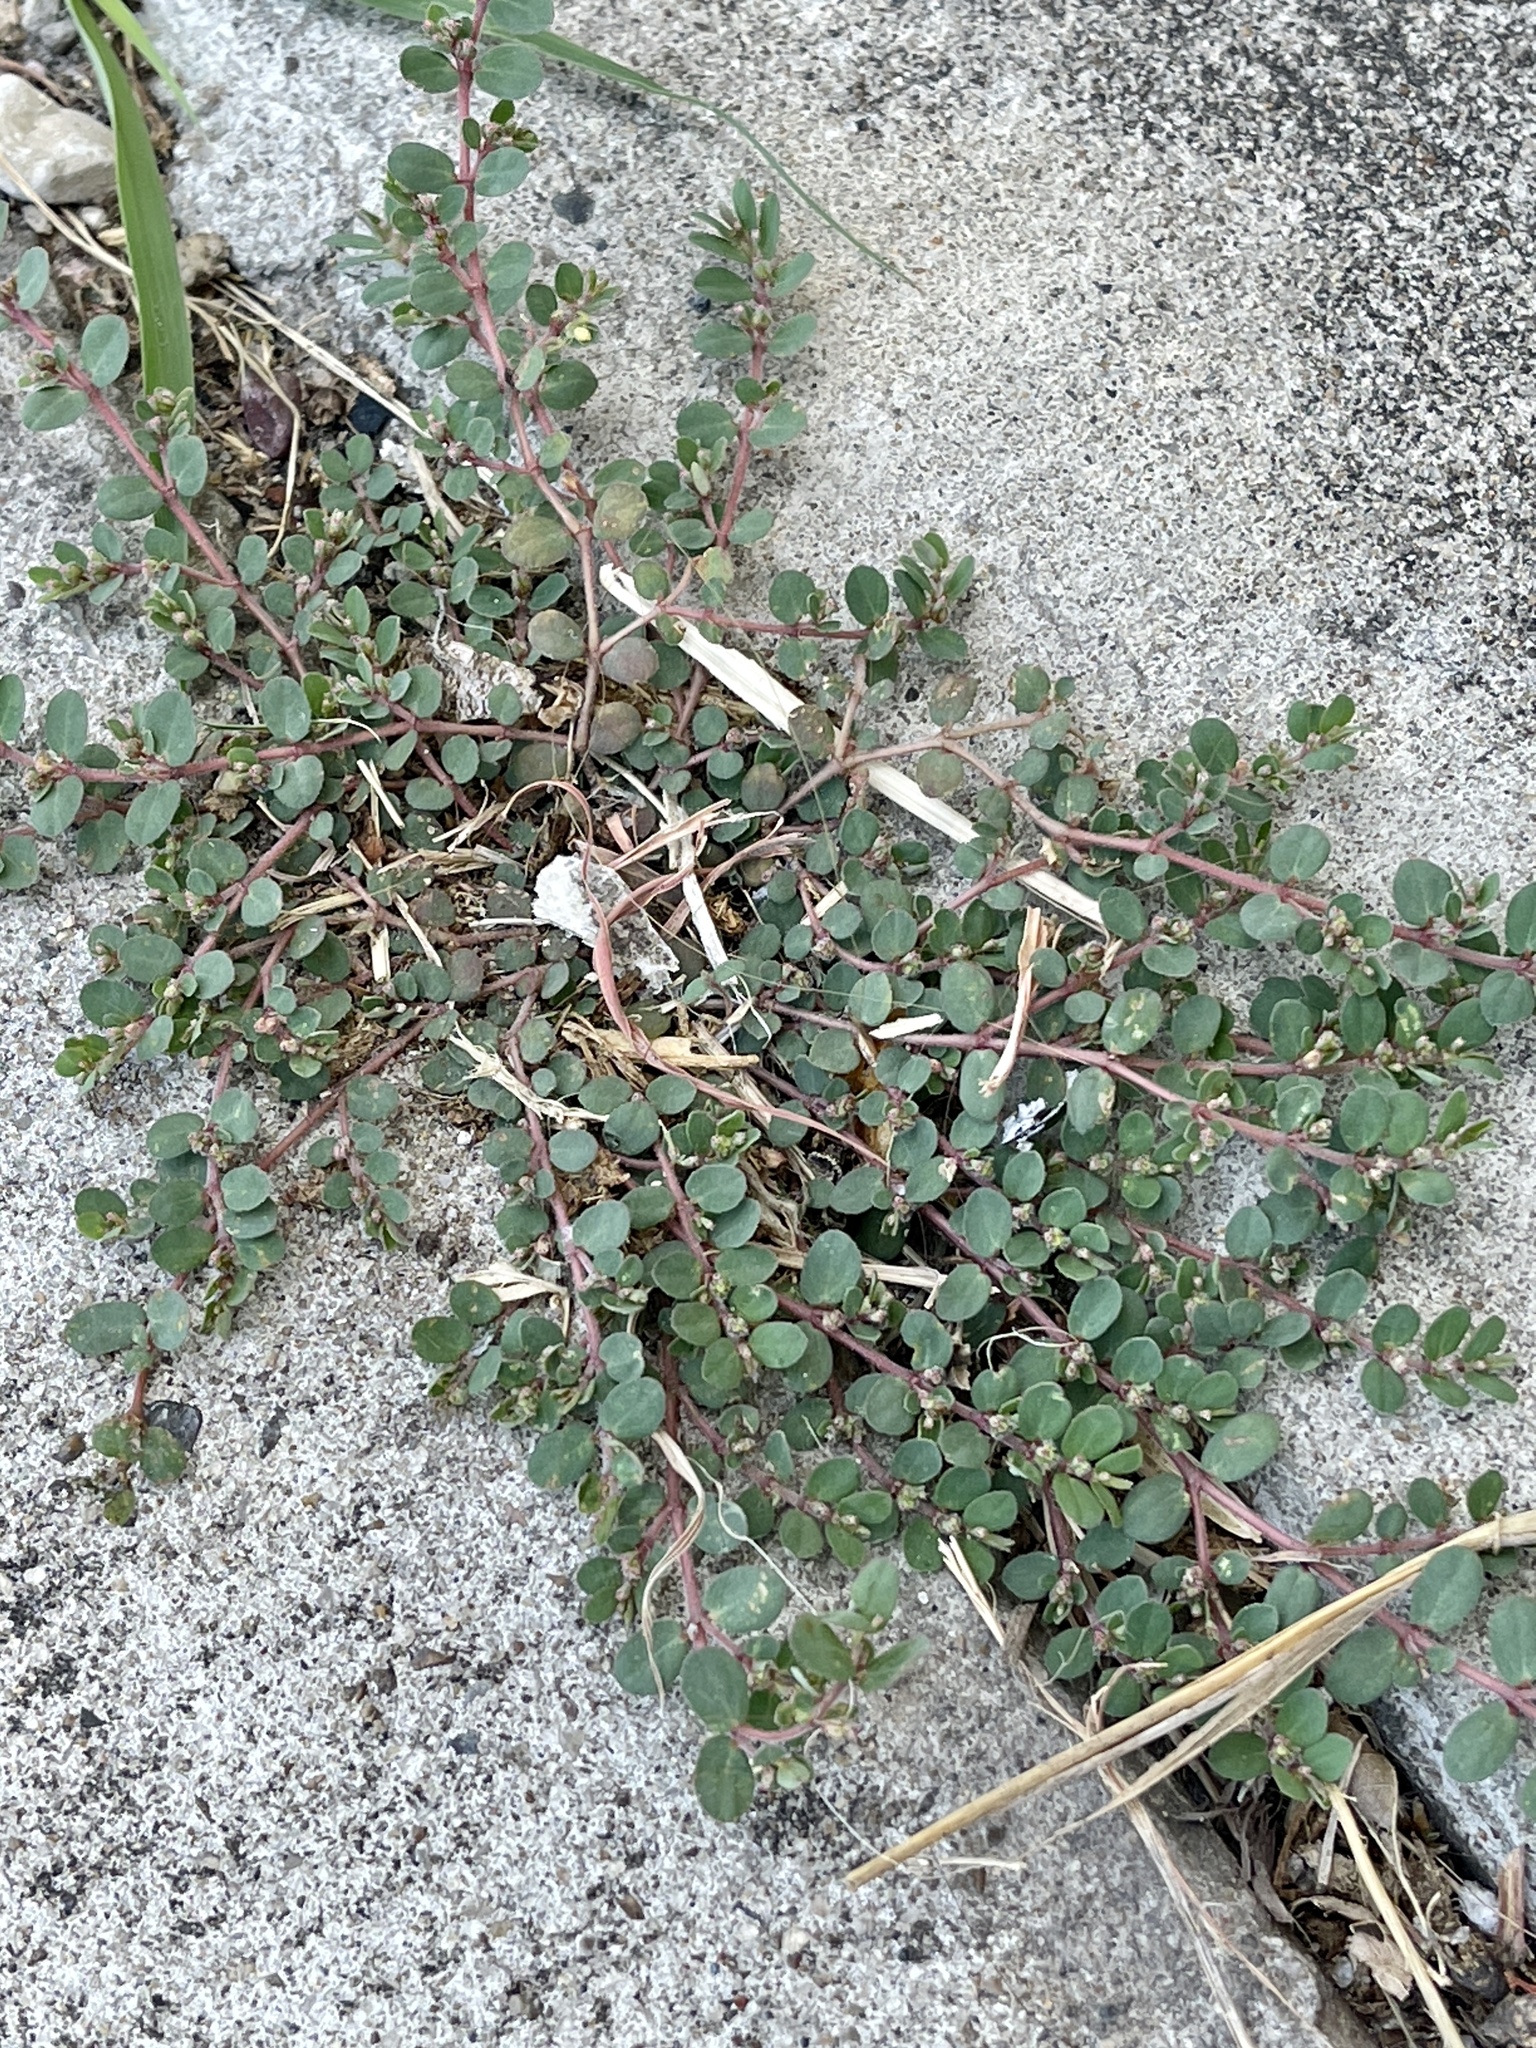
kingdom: Plantae
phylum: Tracheophyta
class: Magnoliopsida
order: Malpighiales
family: Euphorbiaceae
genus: Euphorbia
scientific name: Euphorbia prostrata
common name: Prostrate sandmat
